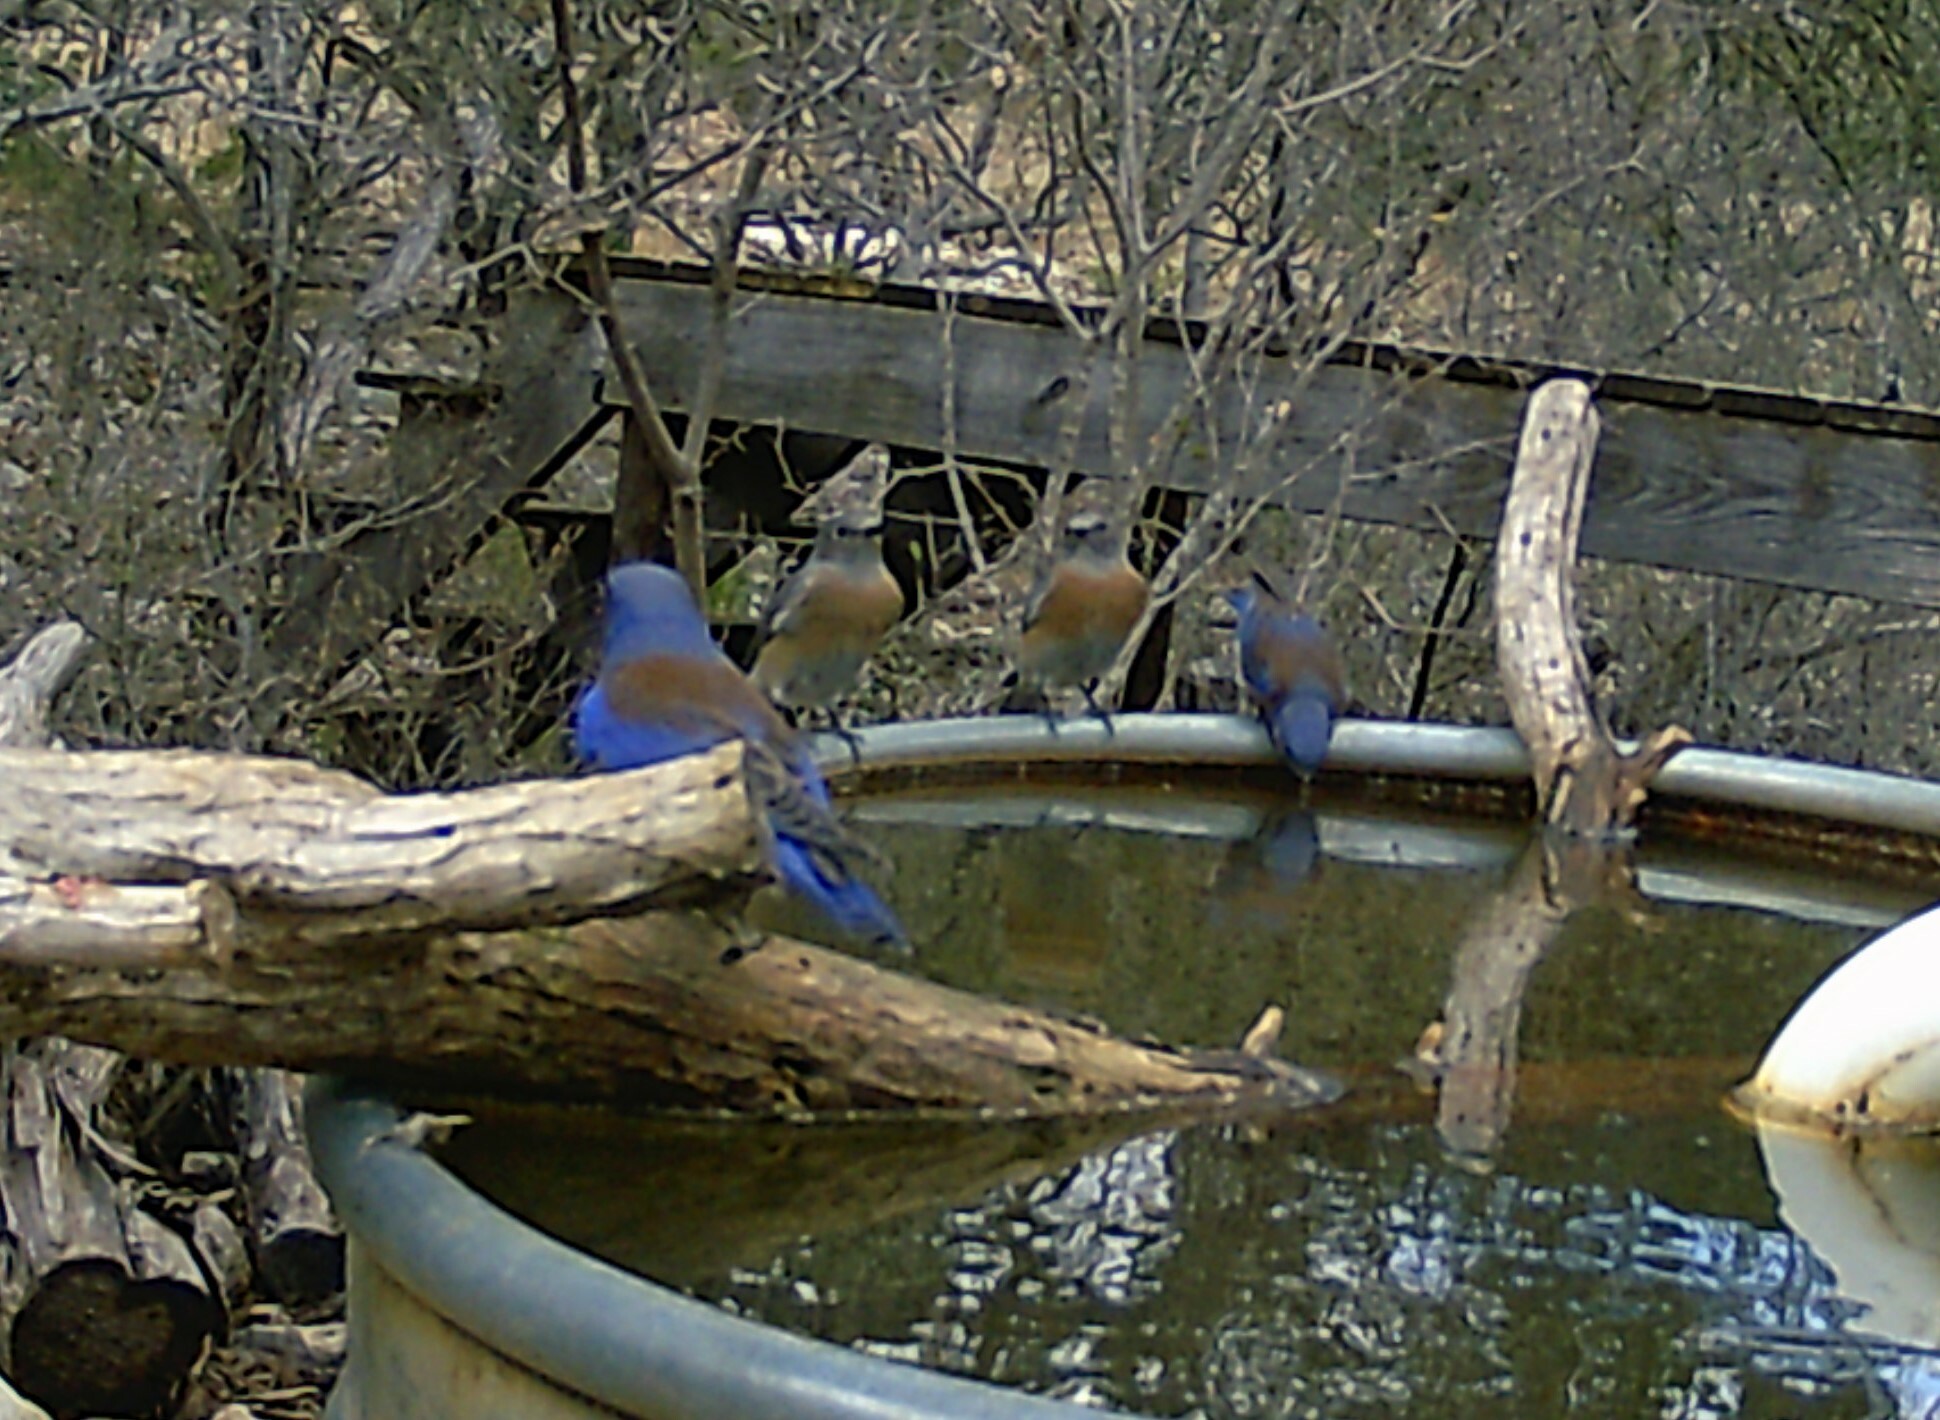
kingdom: Animalia
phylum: Chordata
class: Aves
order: Passeriformes
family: Turdidae
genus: Sialia
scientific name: Sialia mexicana
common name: Western bluebird
